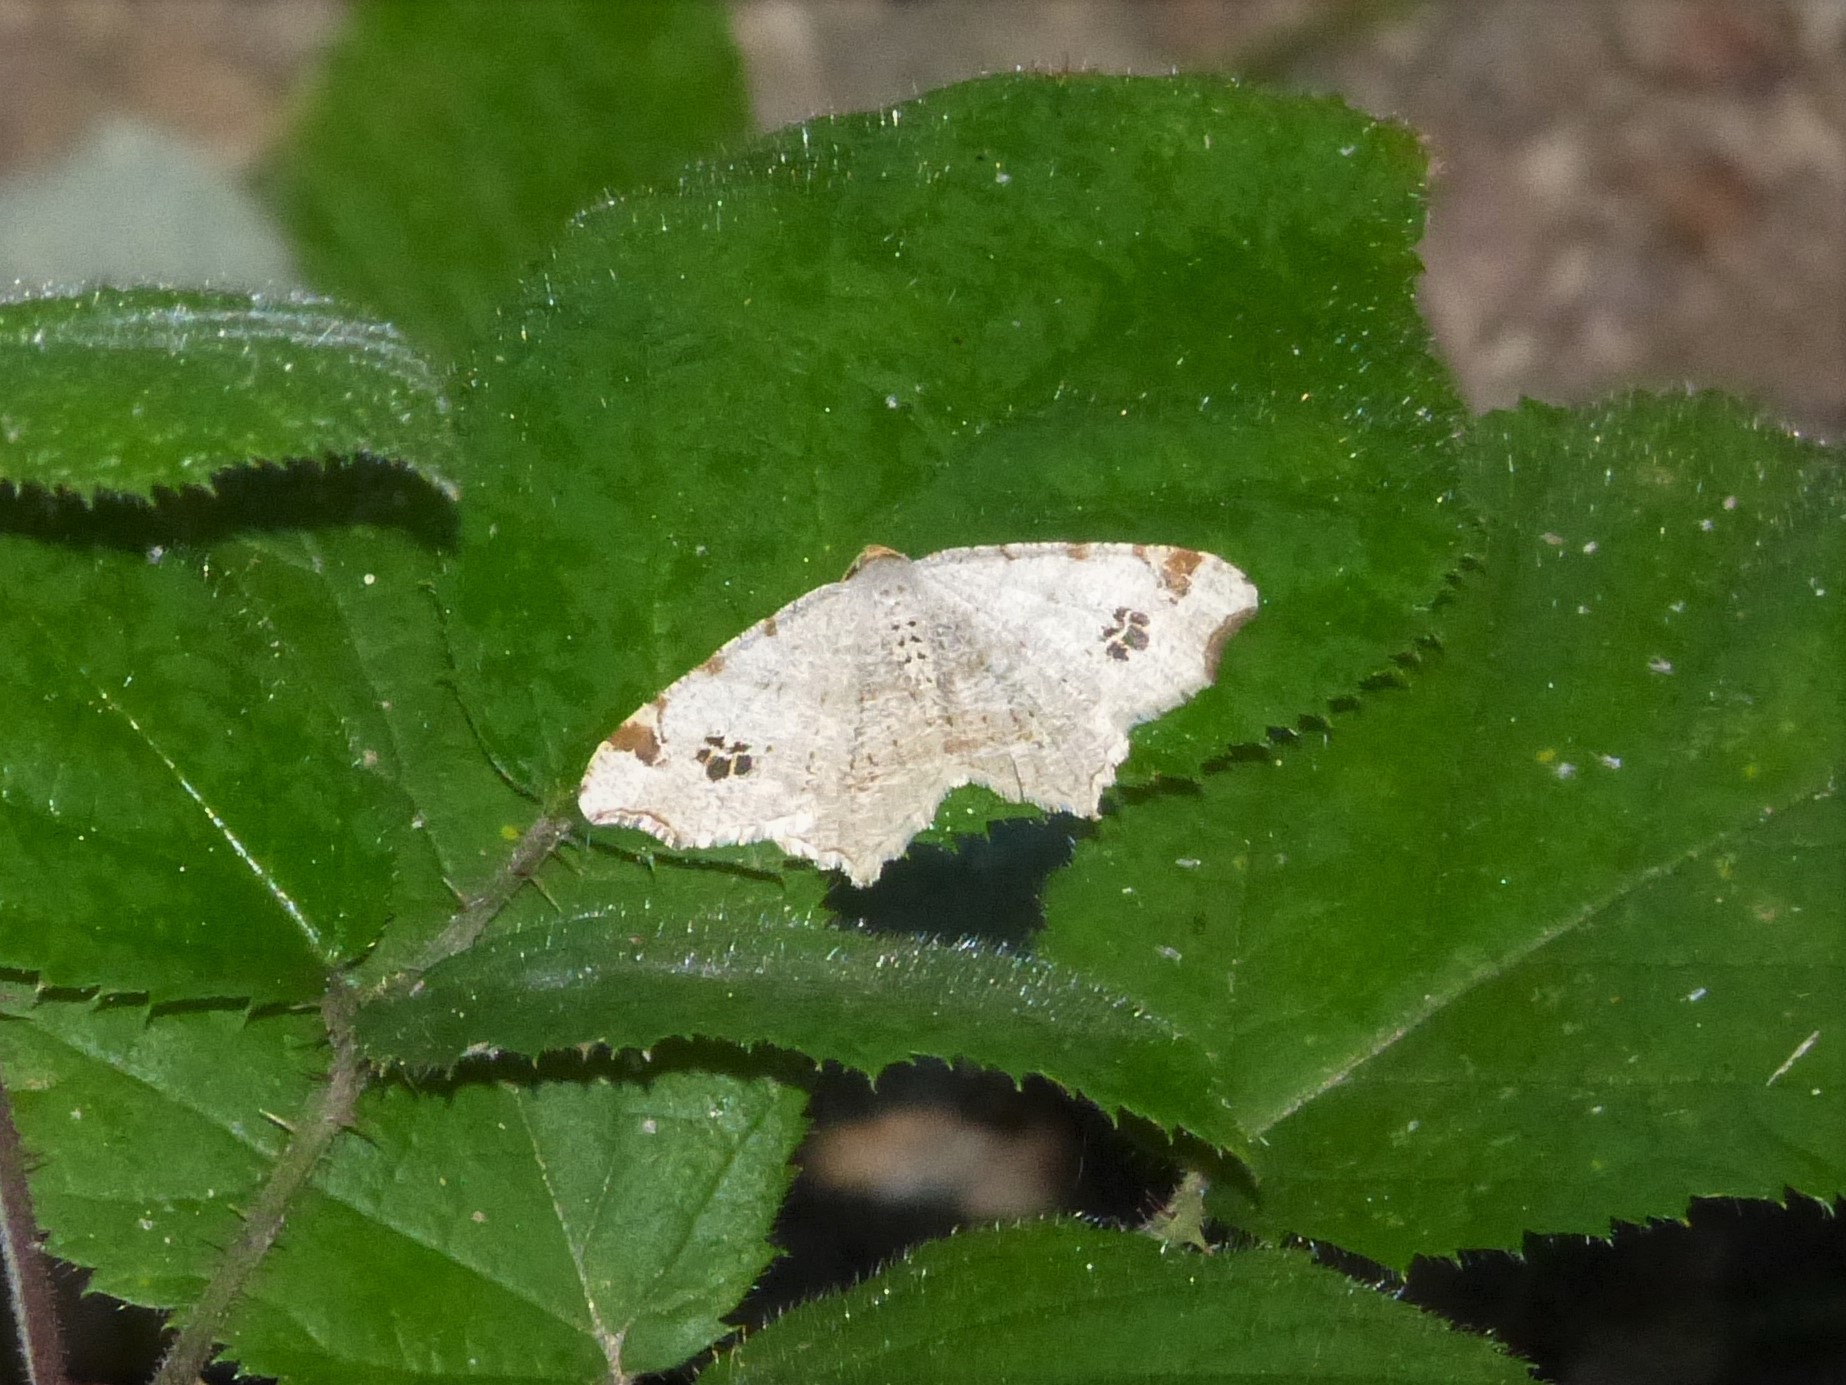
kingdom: Animalia
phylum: Arthropoda
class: Insecta
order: Lepidoptera
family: Geometridae
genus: Macaria
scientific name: Macaria notata
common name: Peacock moth
